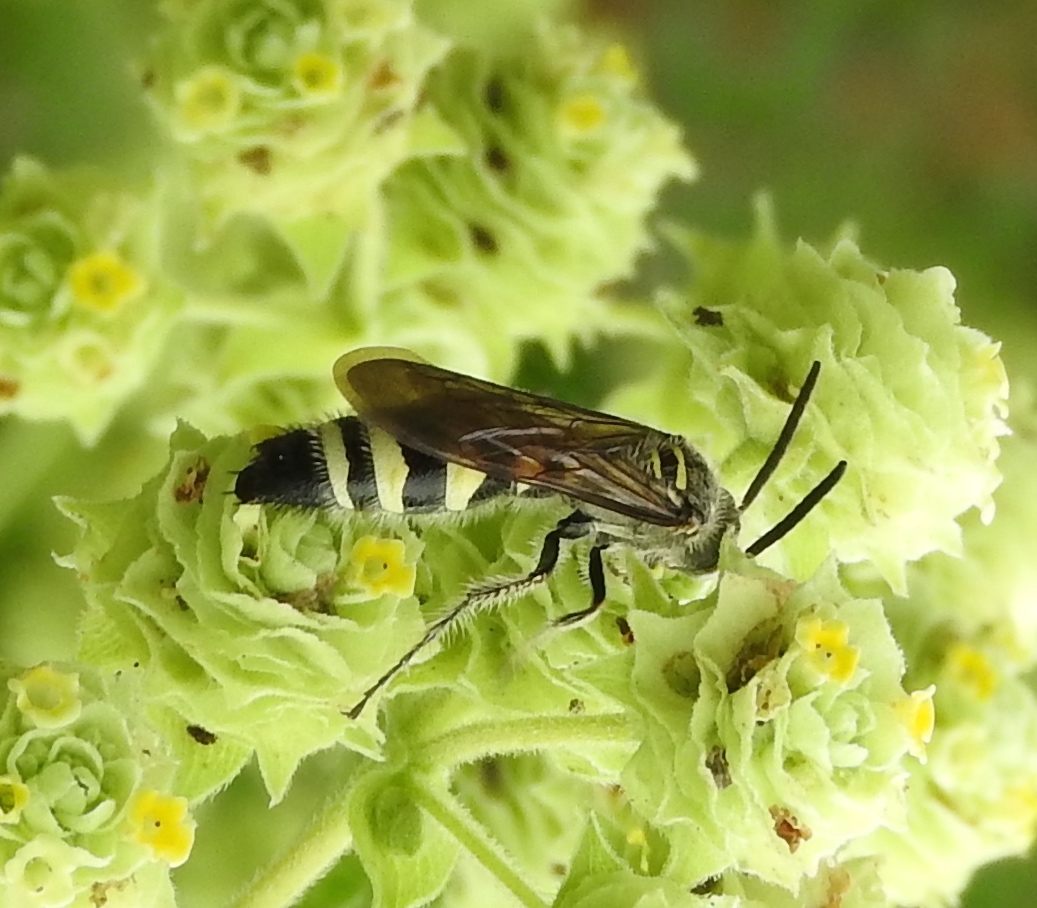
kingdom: Animalia
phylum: Arthropoda
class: Insecta
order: Hymenoptera
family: Scoliidae
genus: Dielis
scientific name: Dielis
